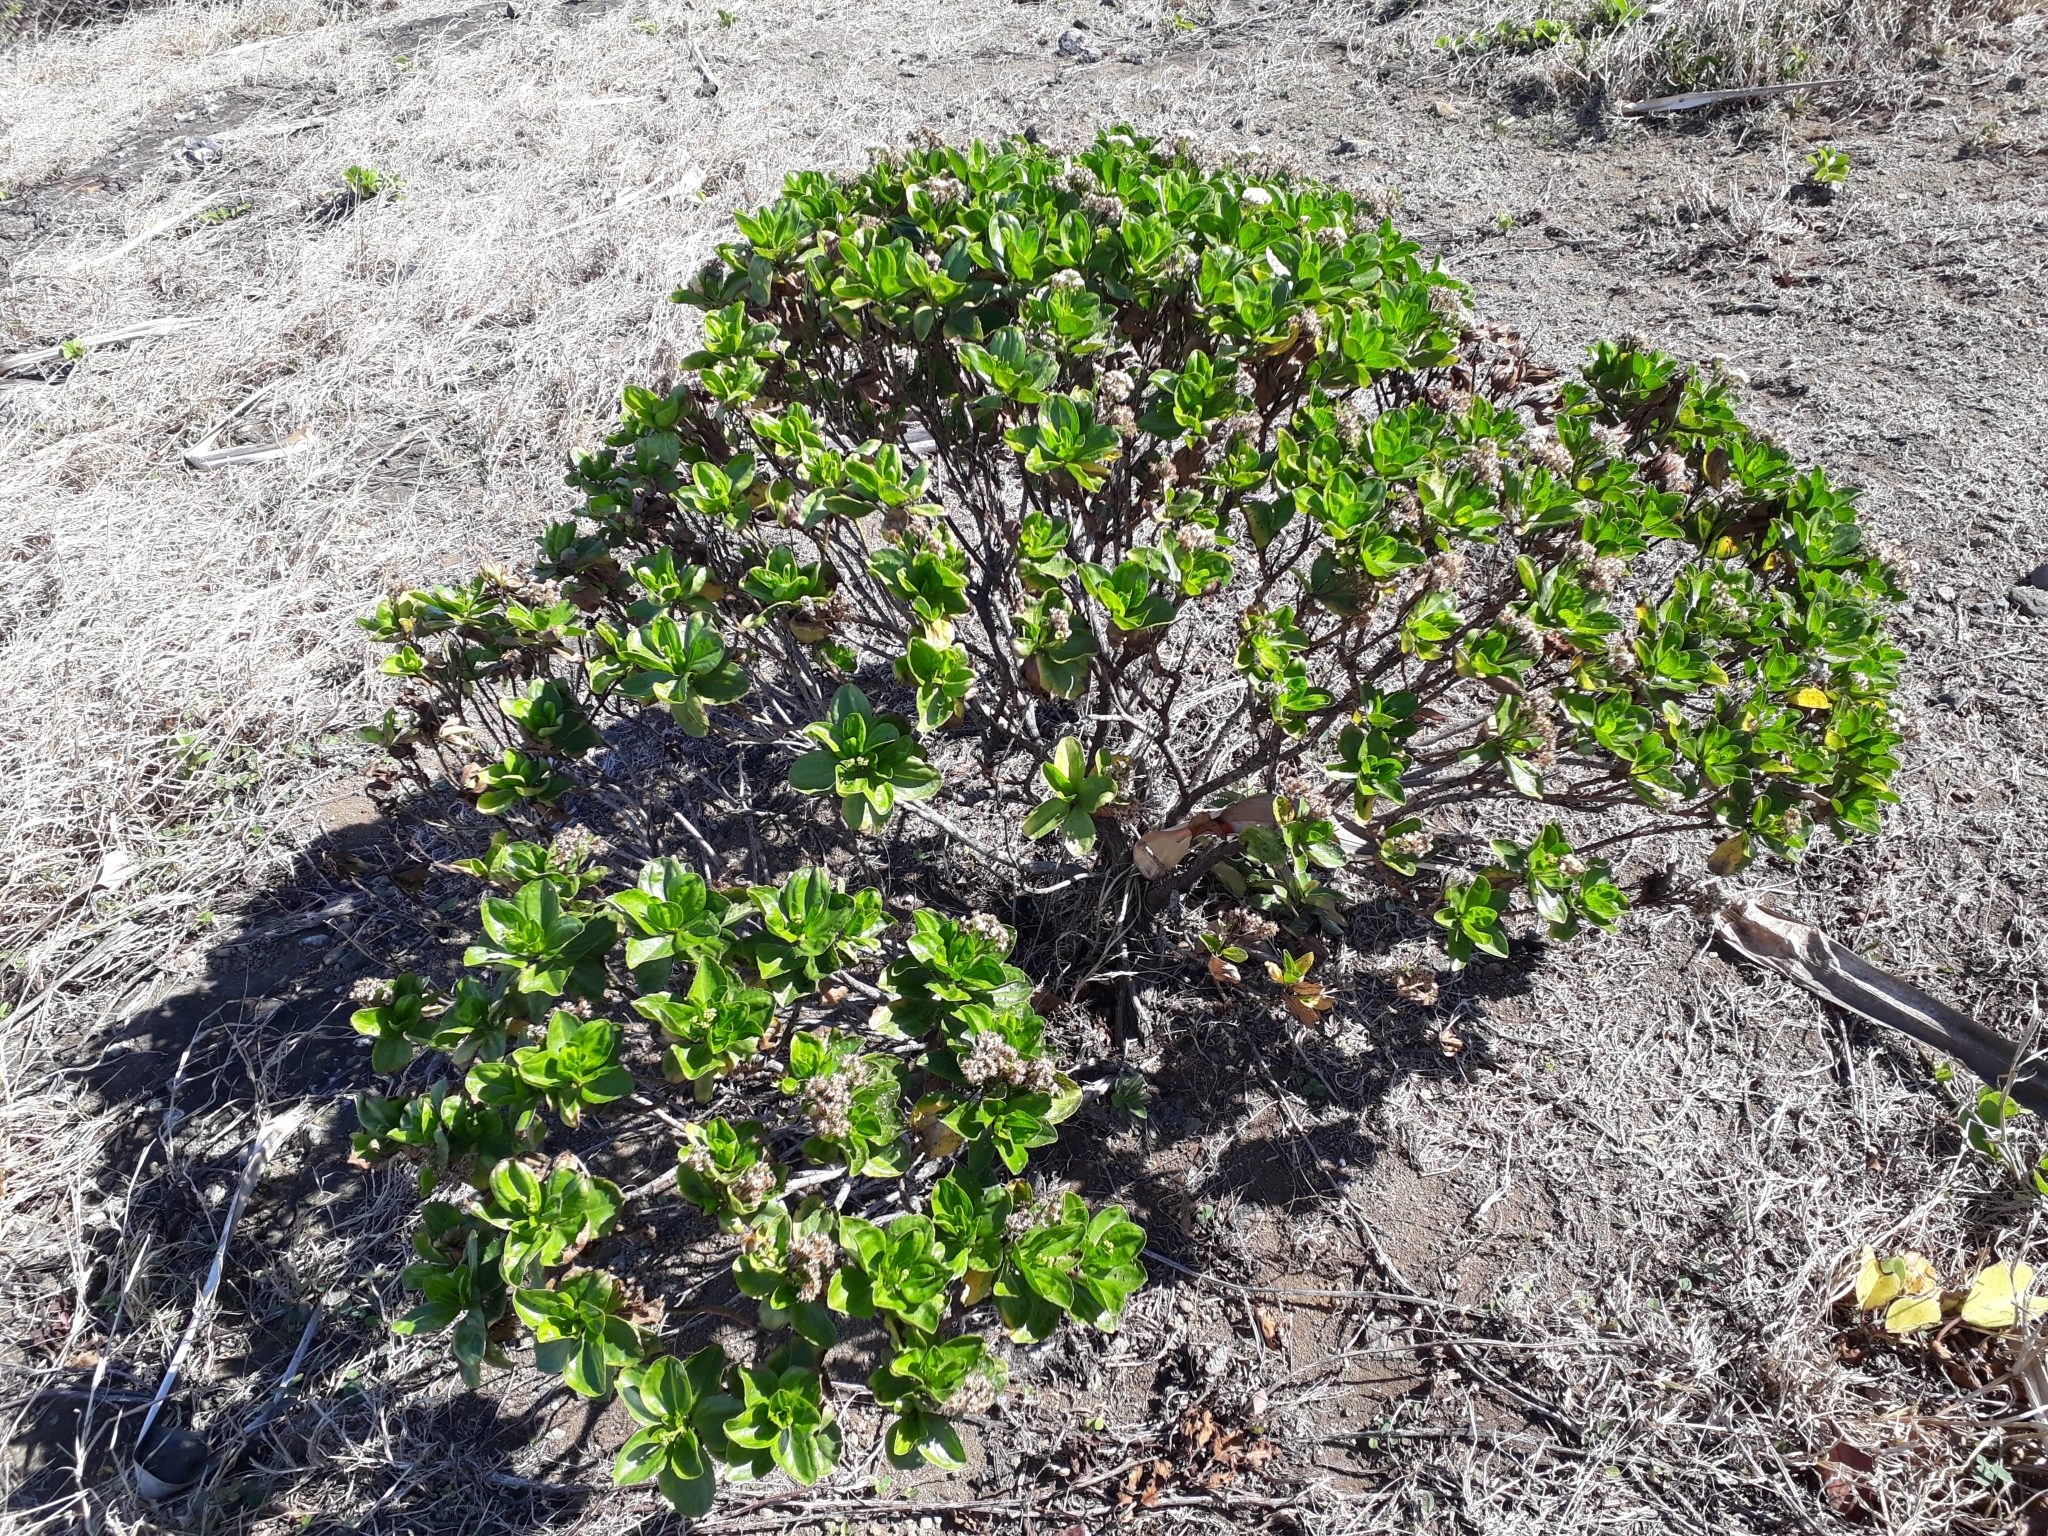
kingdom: Plantae
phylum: Tracheophyta
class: Magnoliopsida
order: Asterales
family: Asteraceae
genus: Psiadia
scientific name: Psiadia arguta
